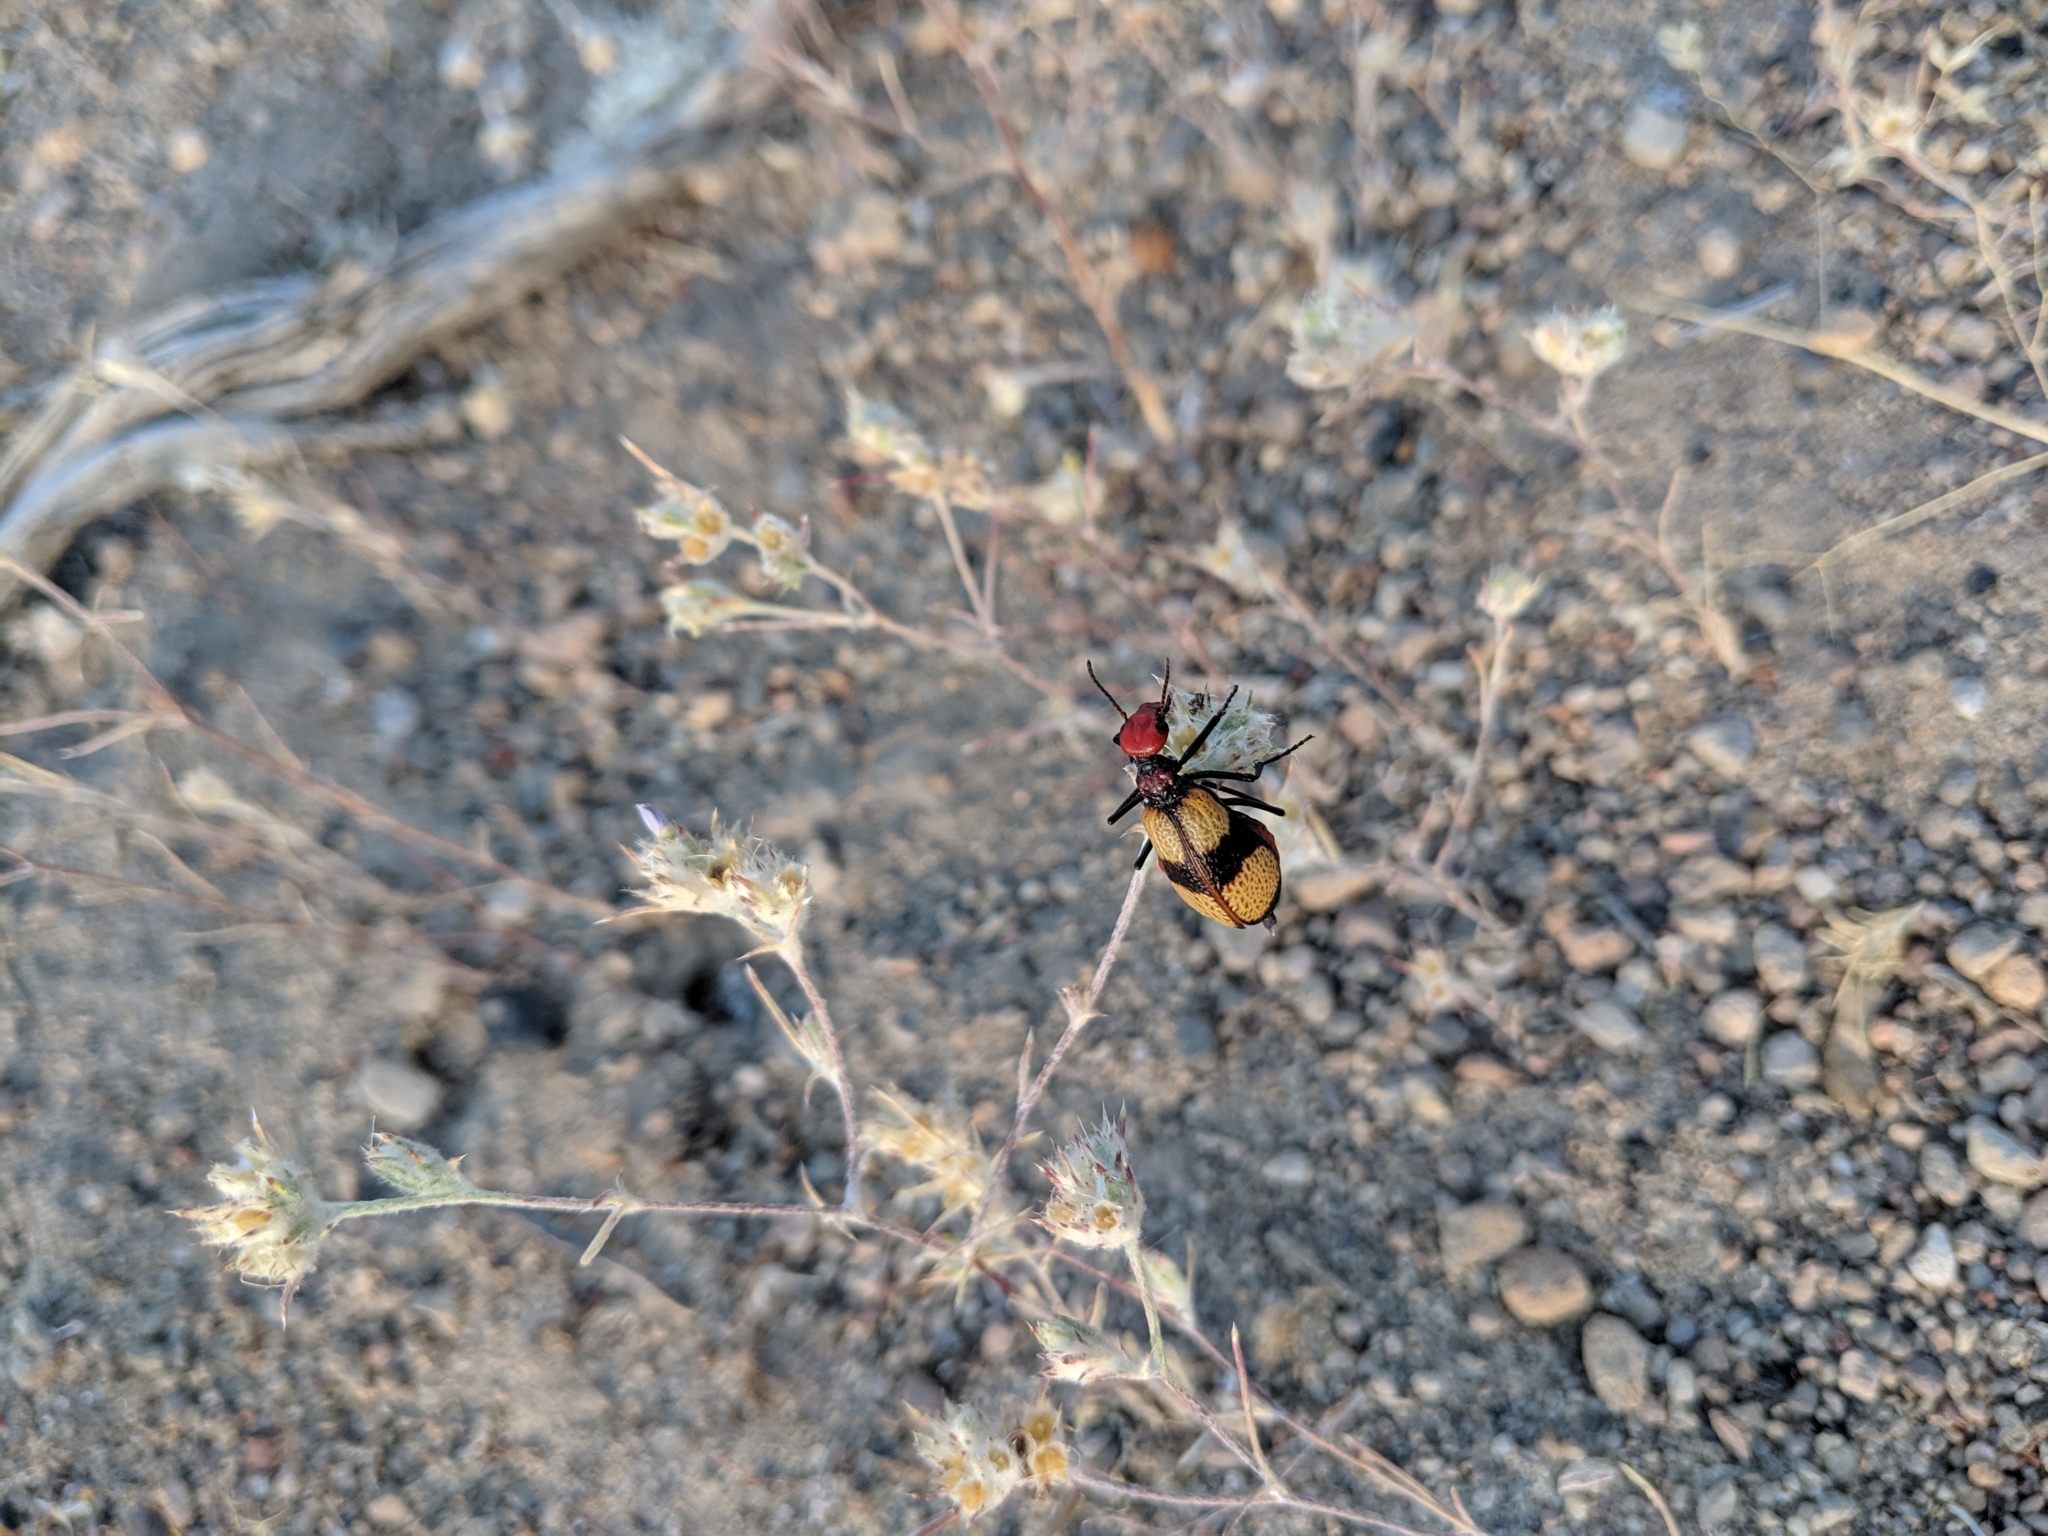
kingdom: Animalia
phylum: Arthropoda
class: Insecta
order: Coleoptera
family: Meloidae
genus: Tegrodera
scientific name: Tegrodera latecincta
